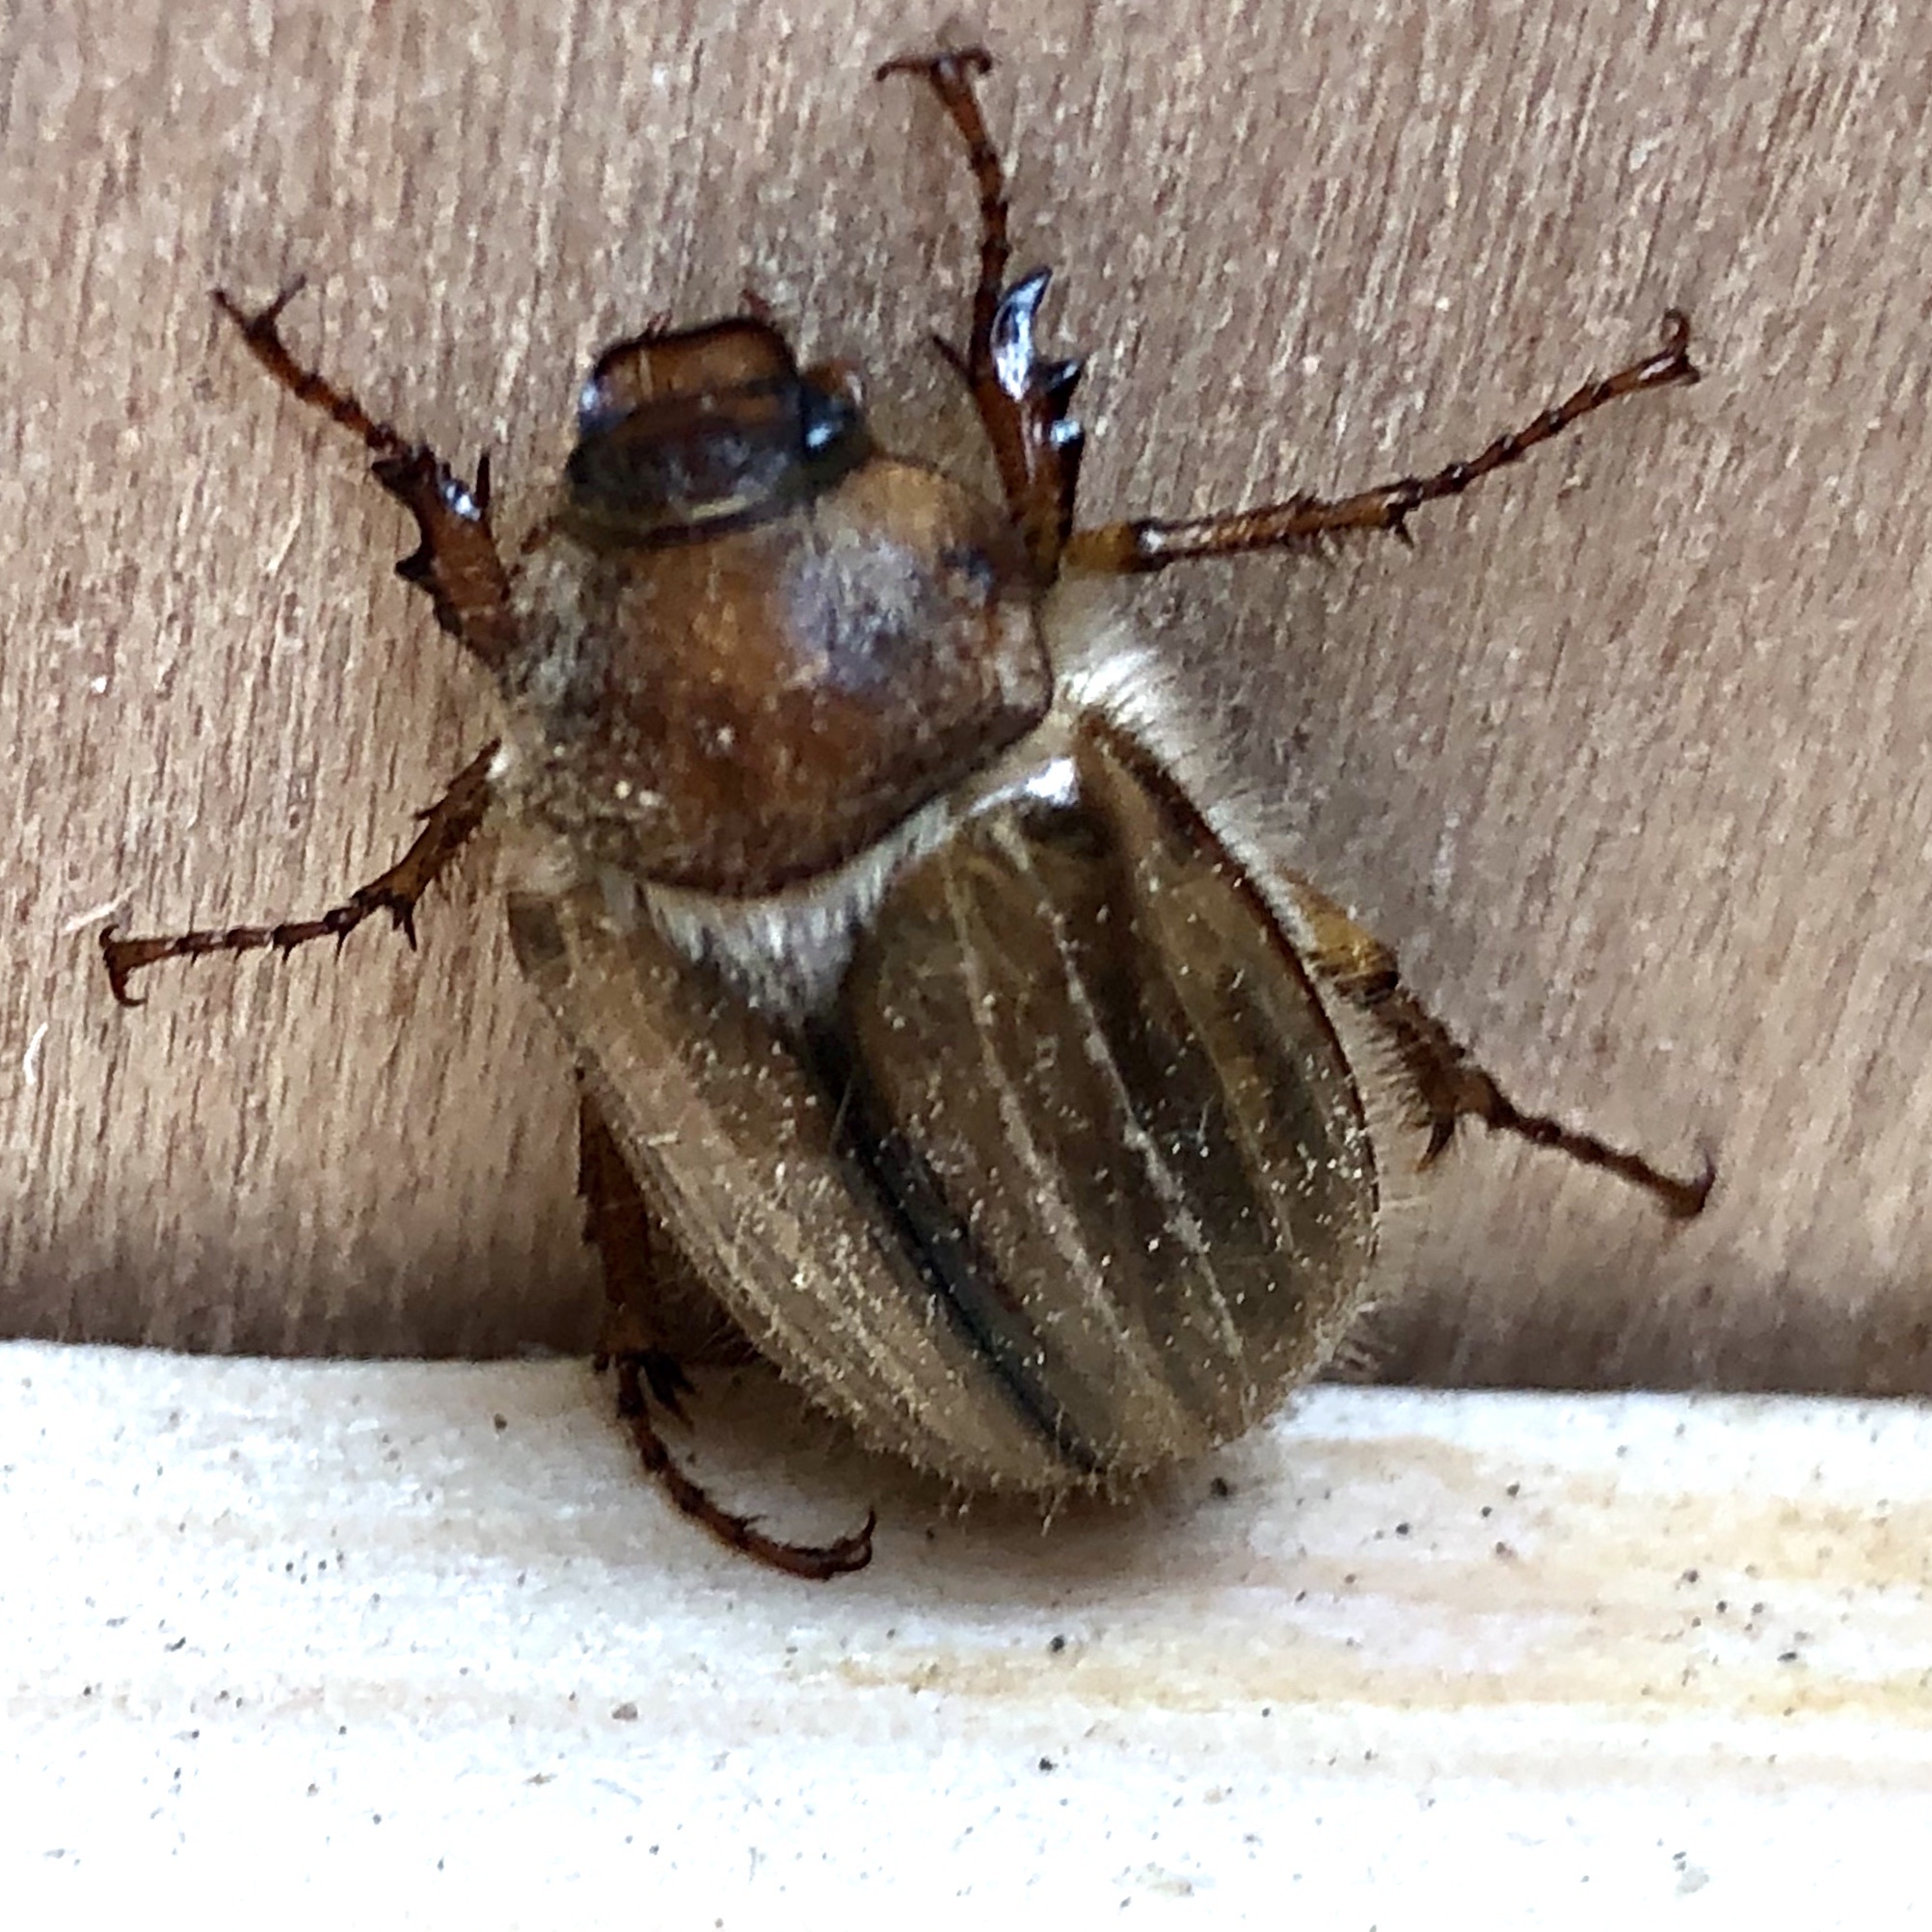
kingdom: Animalia
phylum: Arthropoda
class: Insecta
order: Coleoptera
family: Scarabaeidae
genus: Amphimallon
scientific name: Amphimallon solstitiale
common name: Summer chafer
